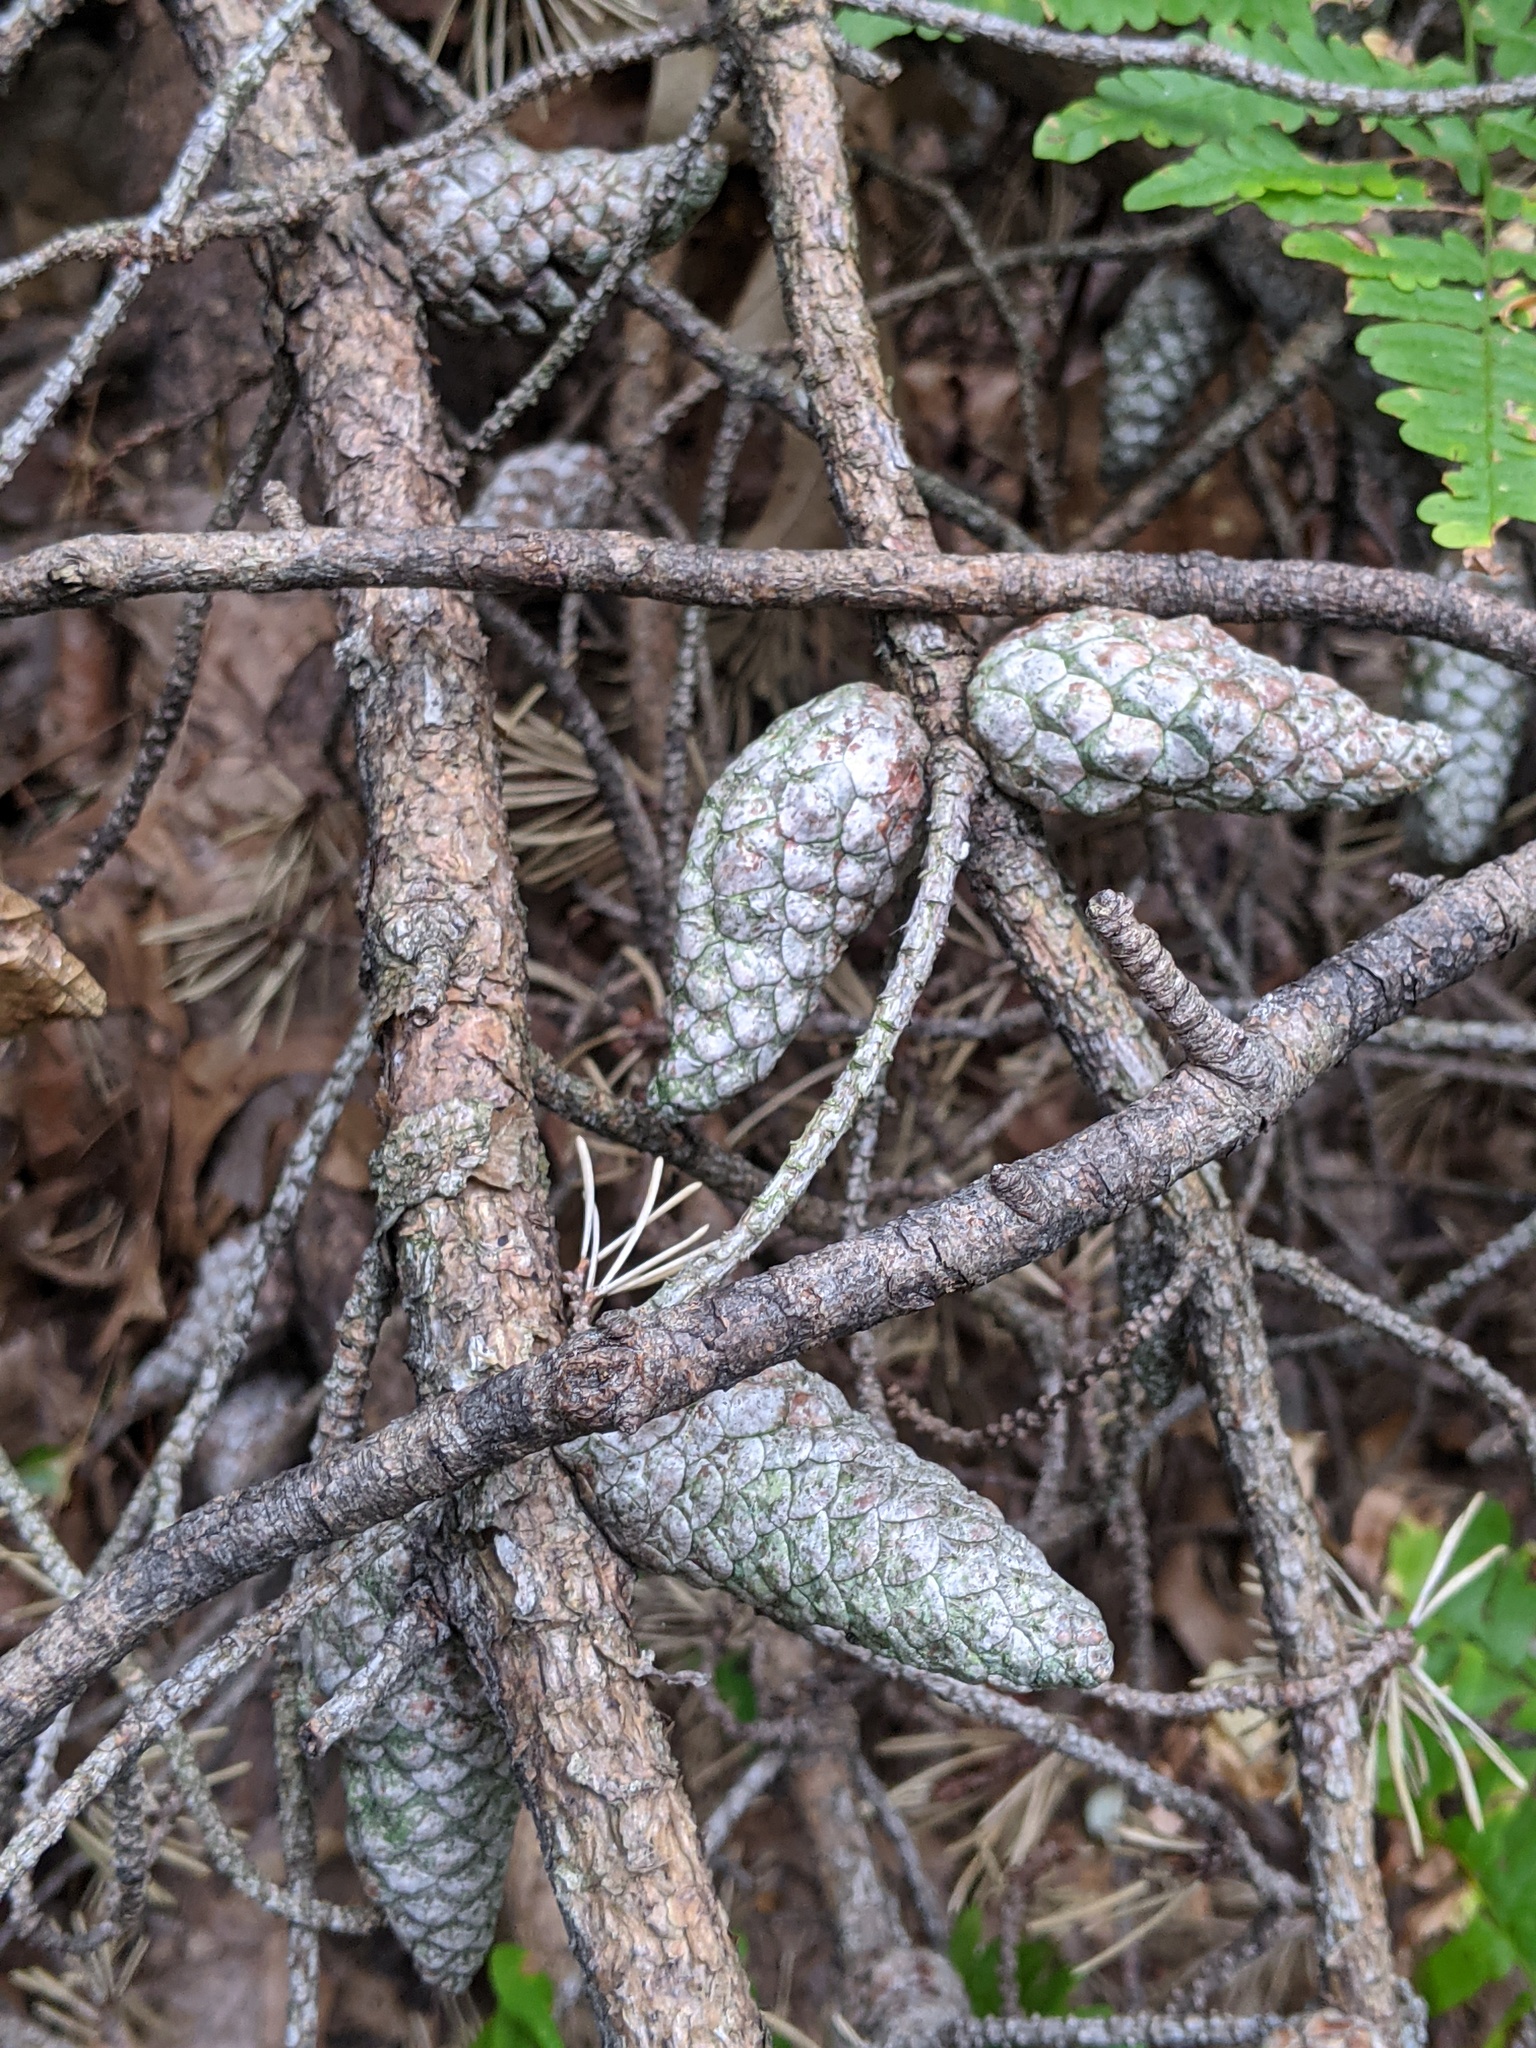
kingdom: Plantae
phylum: Tracheophyta
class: Pinopsida
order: Pinales
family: Pinaceae
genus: Pinus
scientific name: Pinus banksiana
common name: Jack pine
